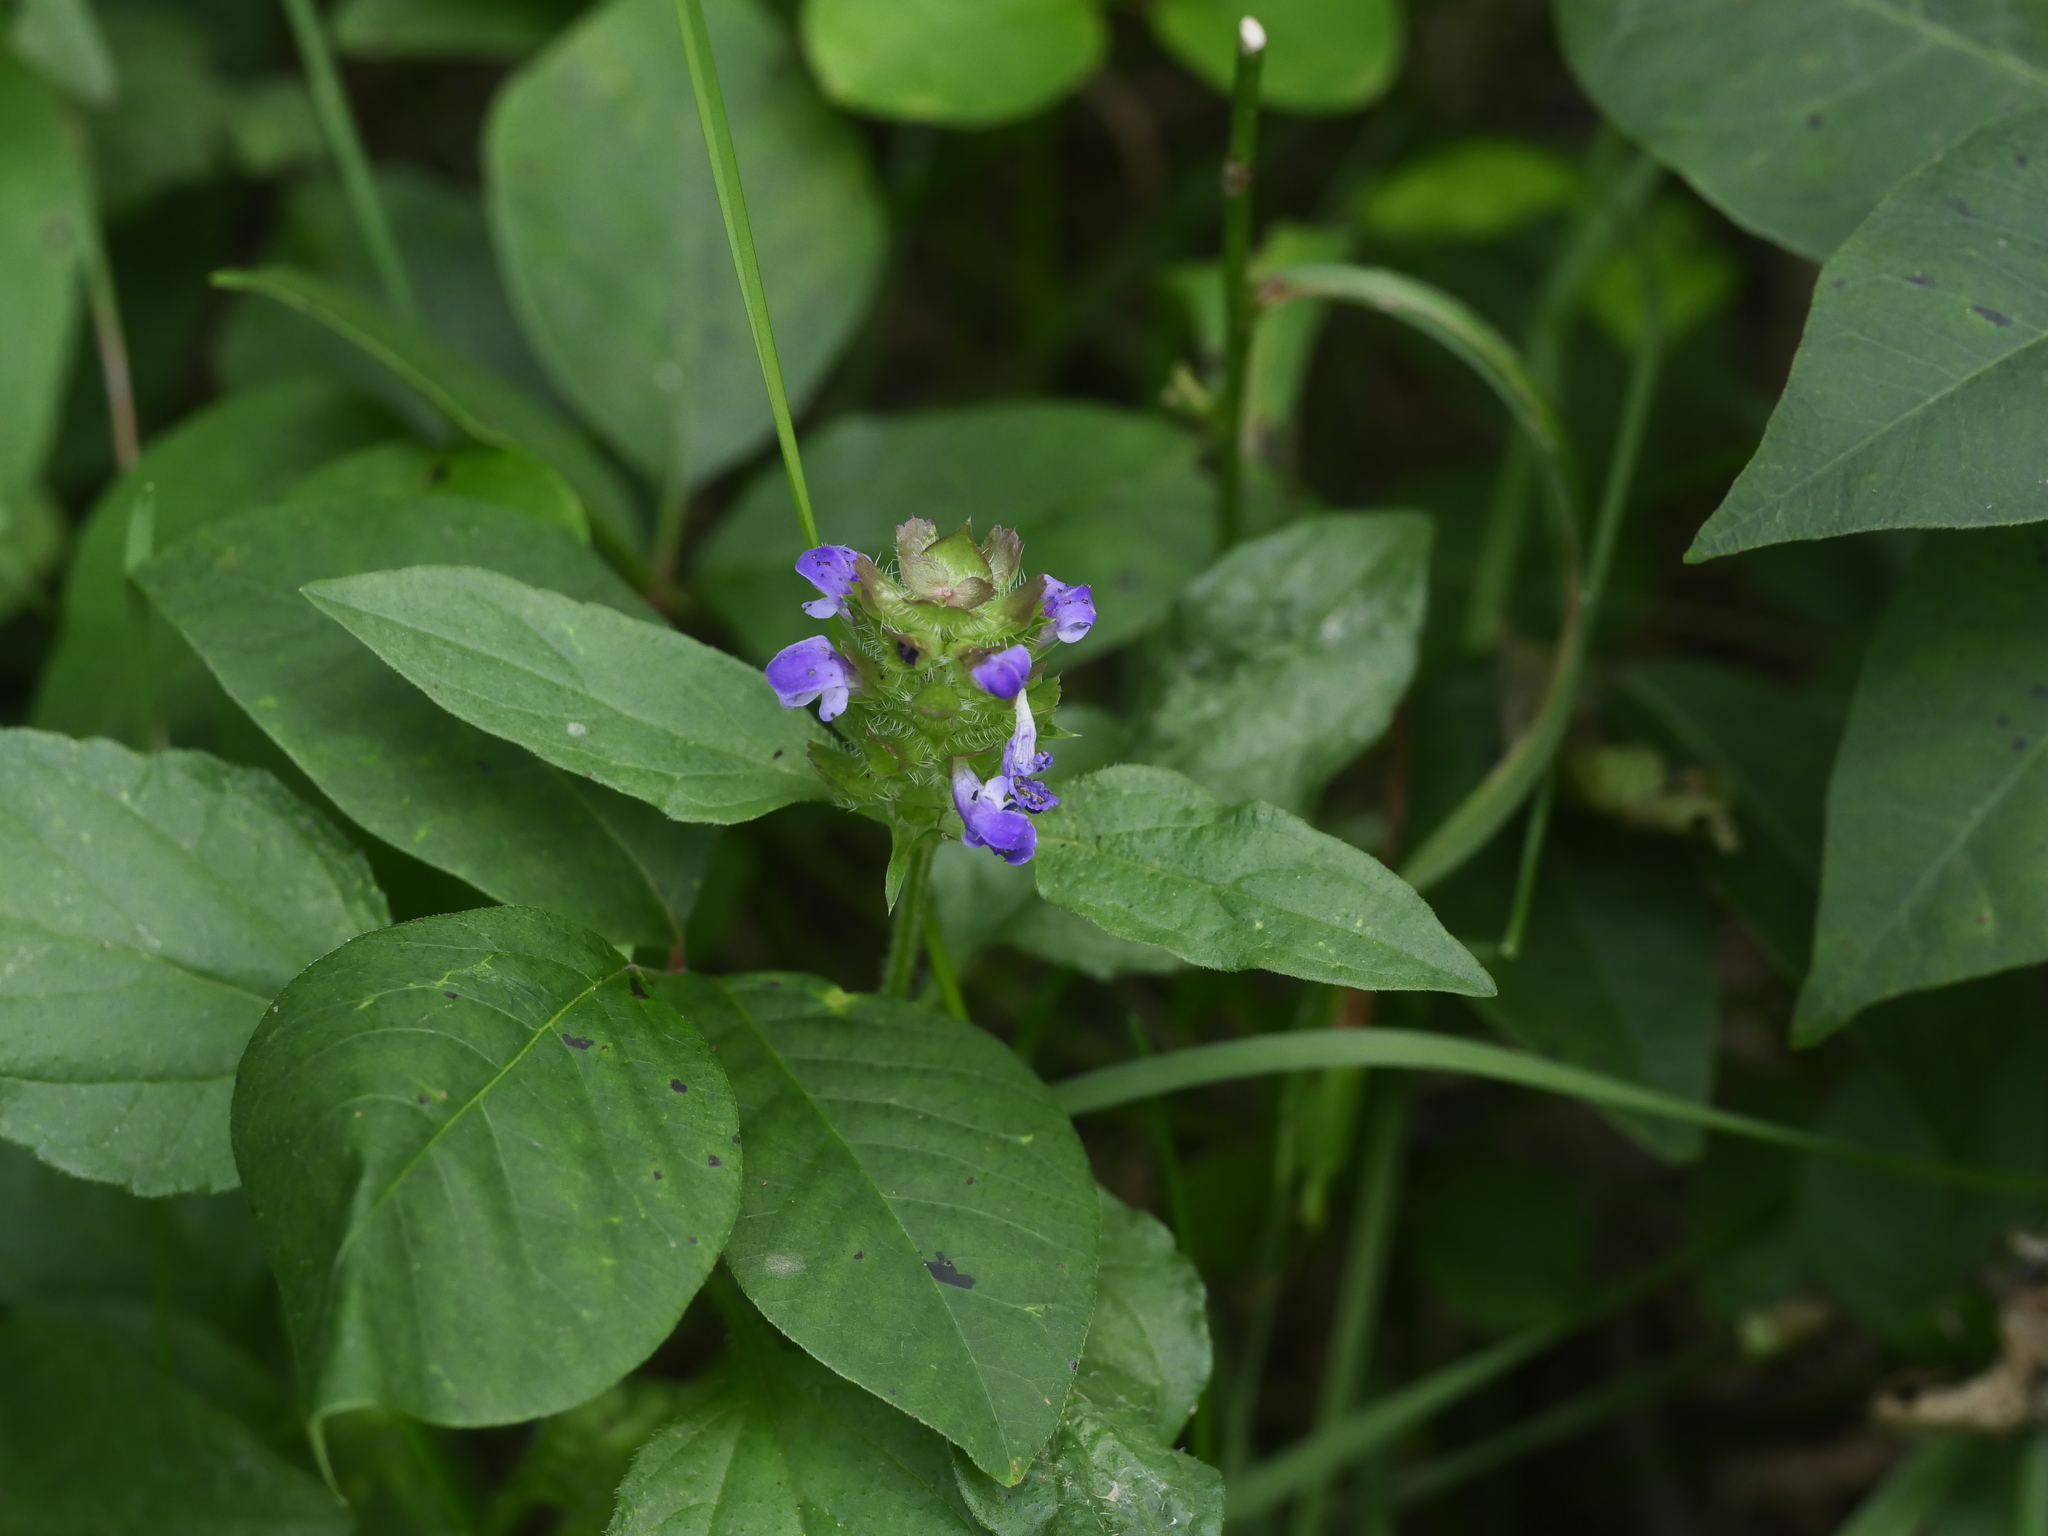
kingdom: Plantae
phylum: Tracheophyta
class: Magnoliopsida
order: Lamiales
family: Lamiaceae
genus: Prunella
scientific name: Prunella vulgaris
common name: Heal-all
